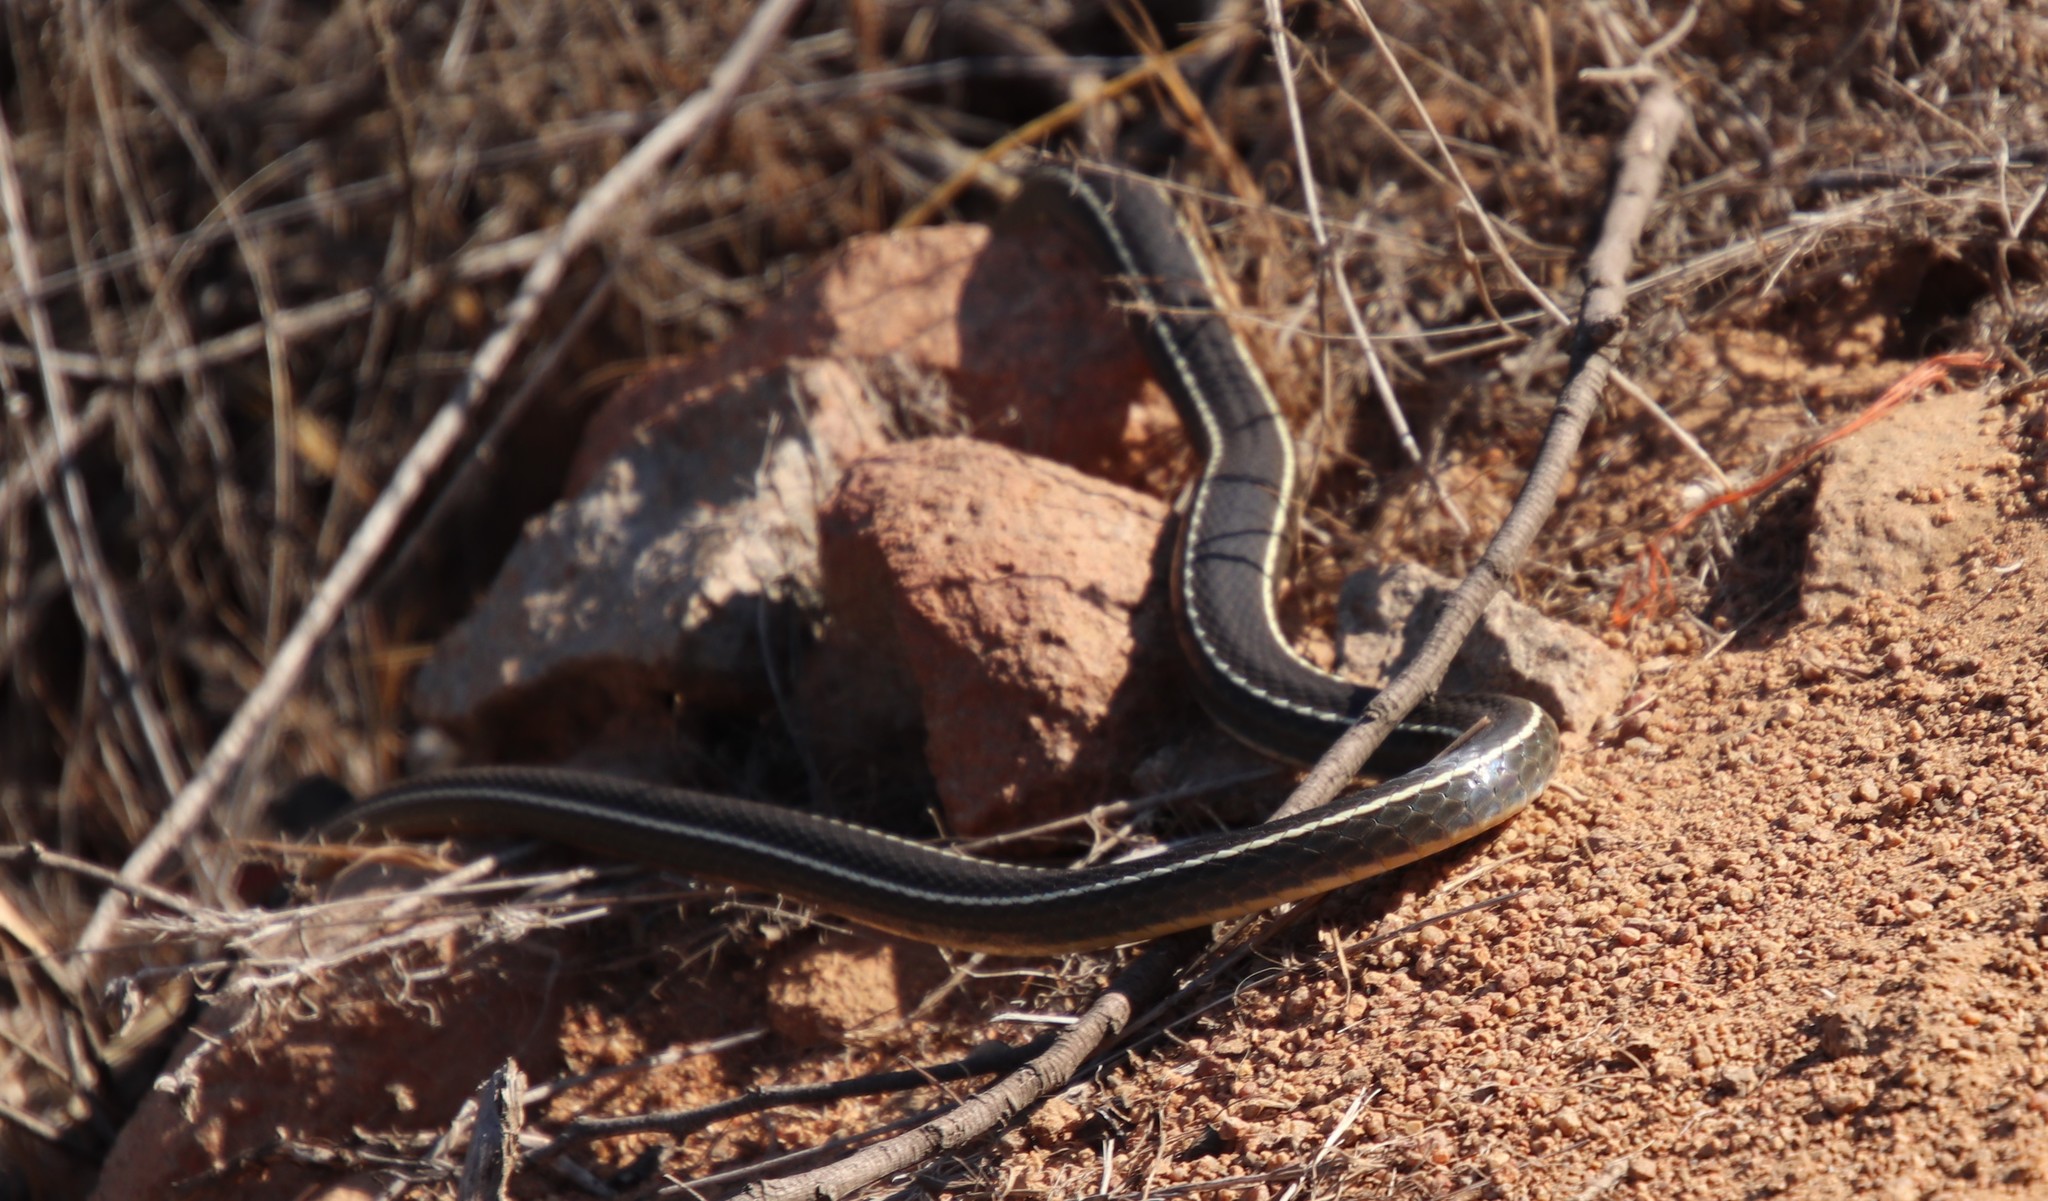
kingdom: Animalia
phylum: Chordata
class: Squamata
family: Colubridae
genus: Masticophis
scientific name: Masticophis lateralis
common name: Striped racer
